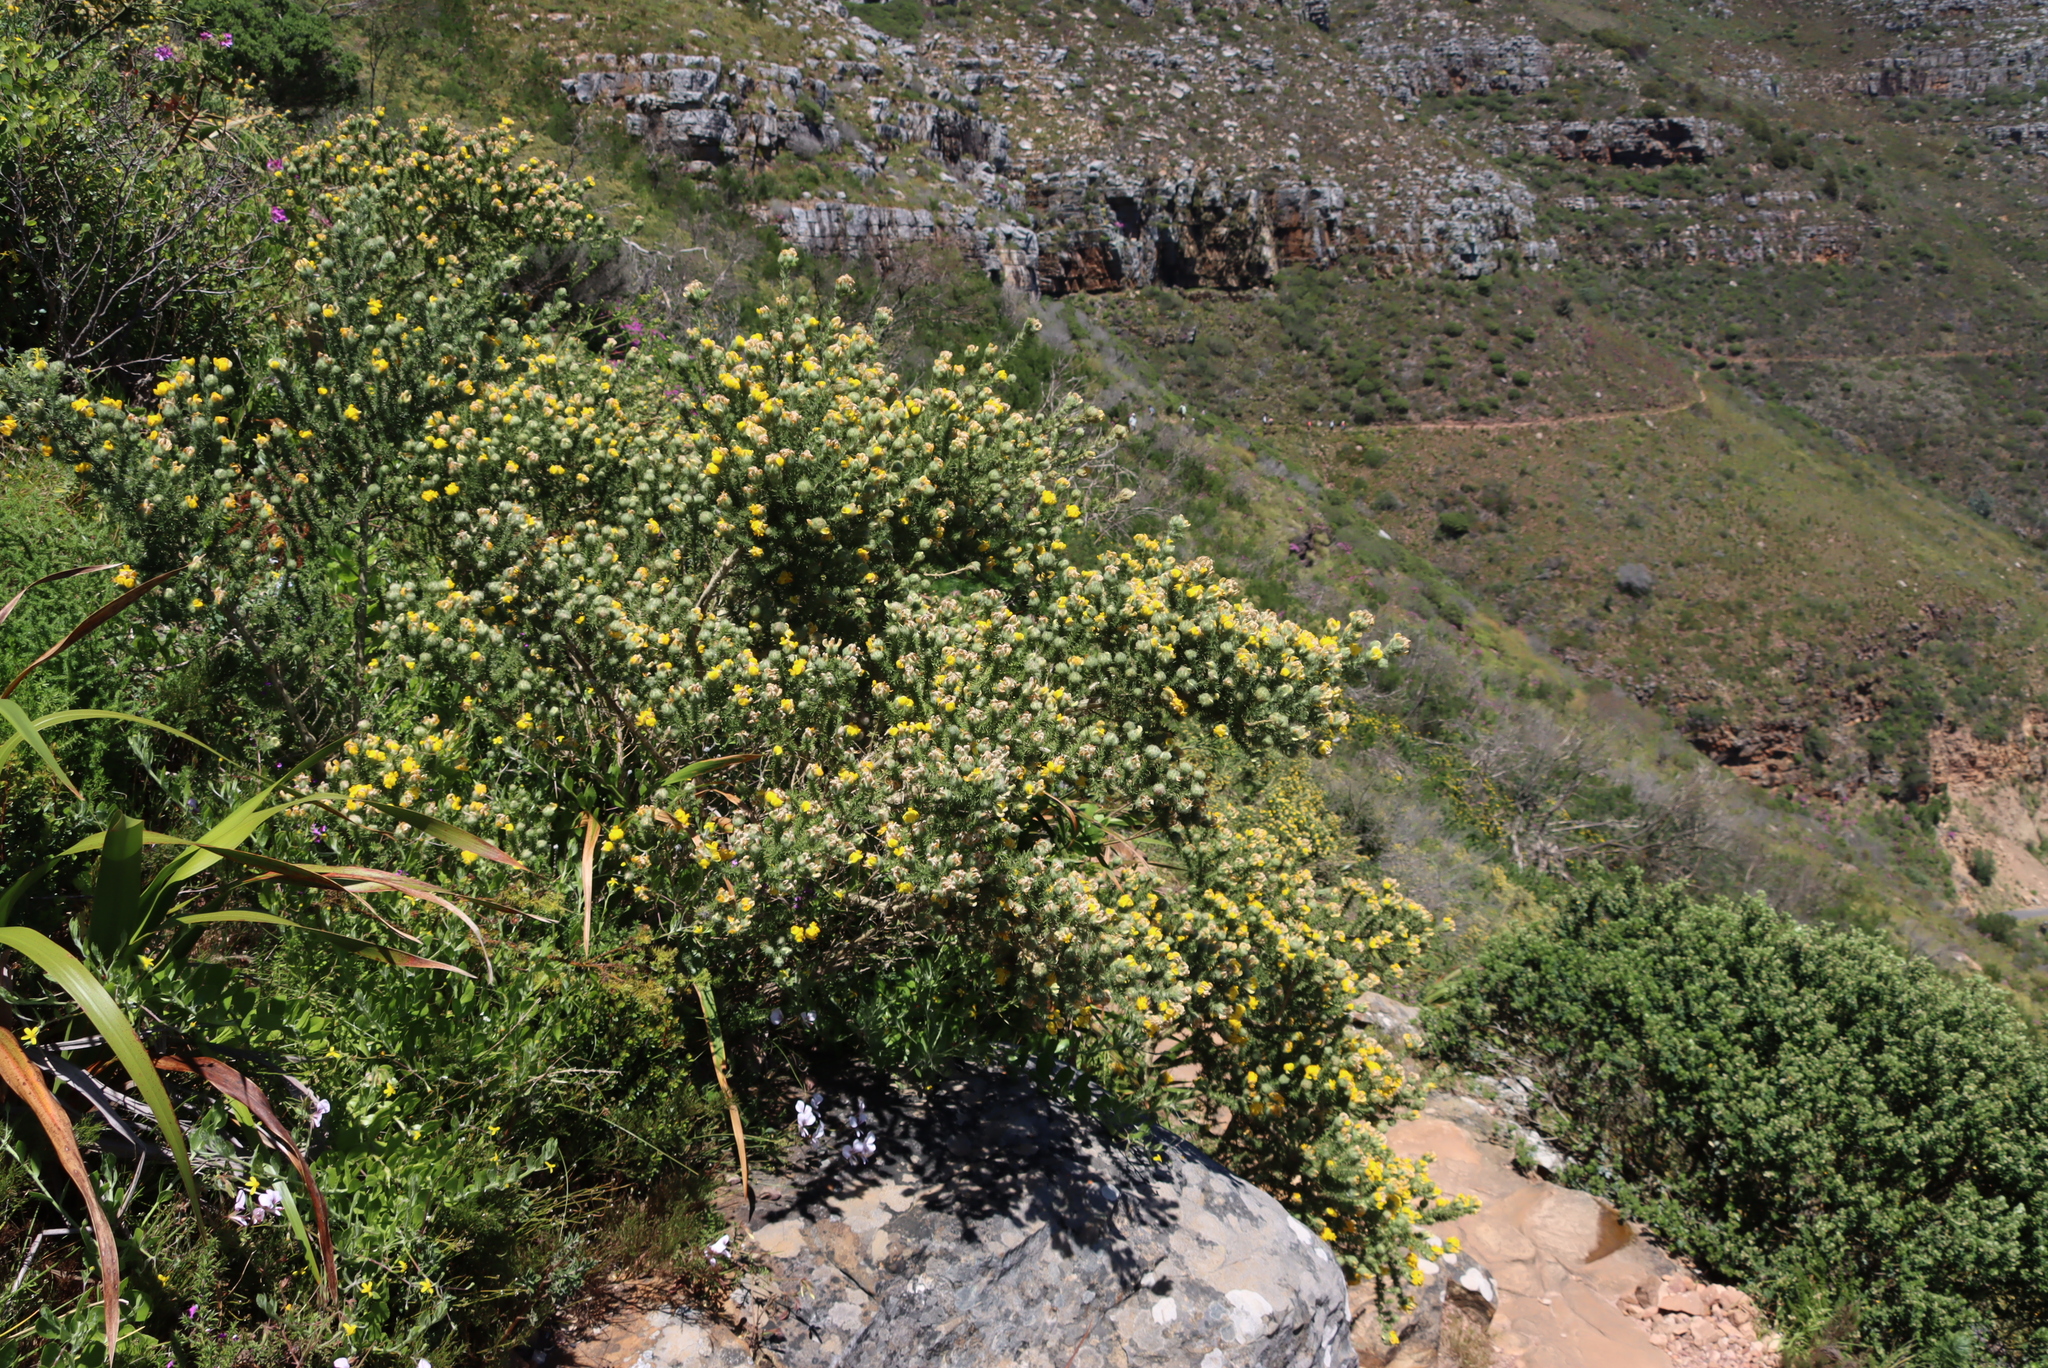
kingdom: Plantae
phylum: Tracheophyta
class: Magnoliopsida
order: Fabales
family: Fabaceae
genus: Aspalathus
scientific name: Aspalathus chenopoda
